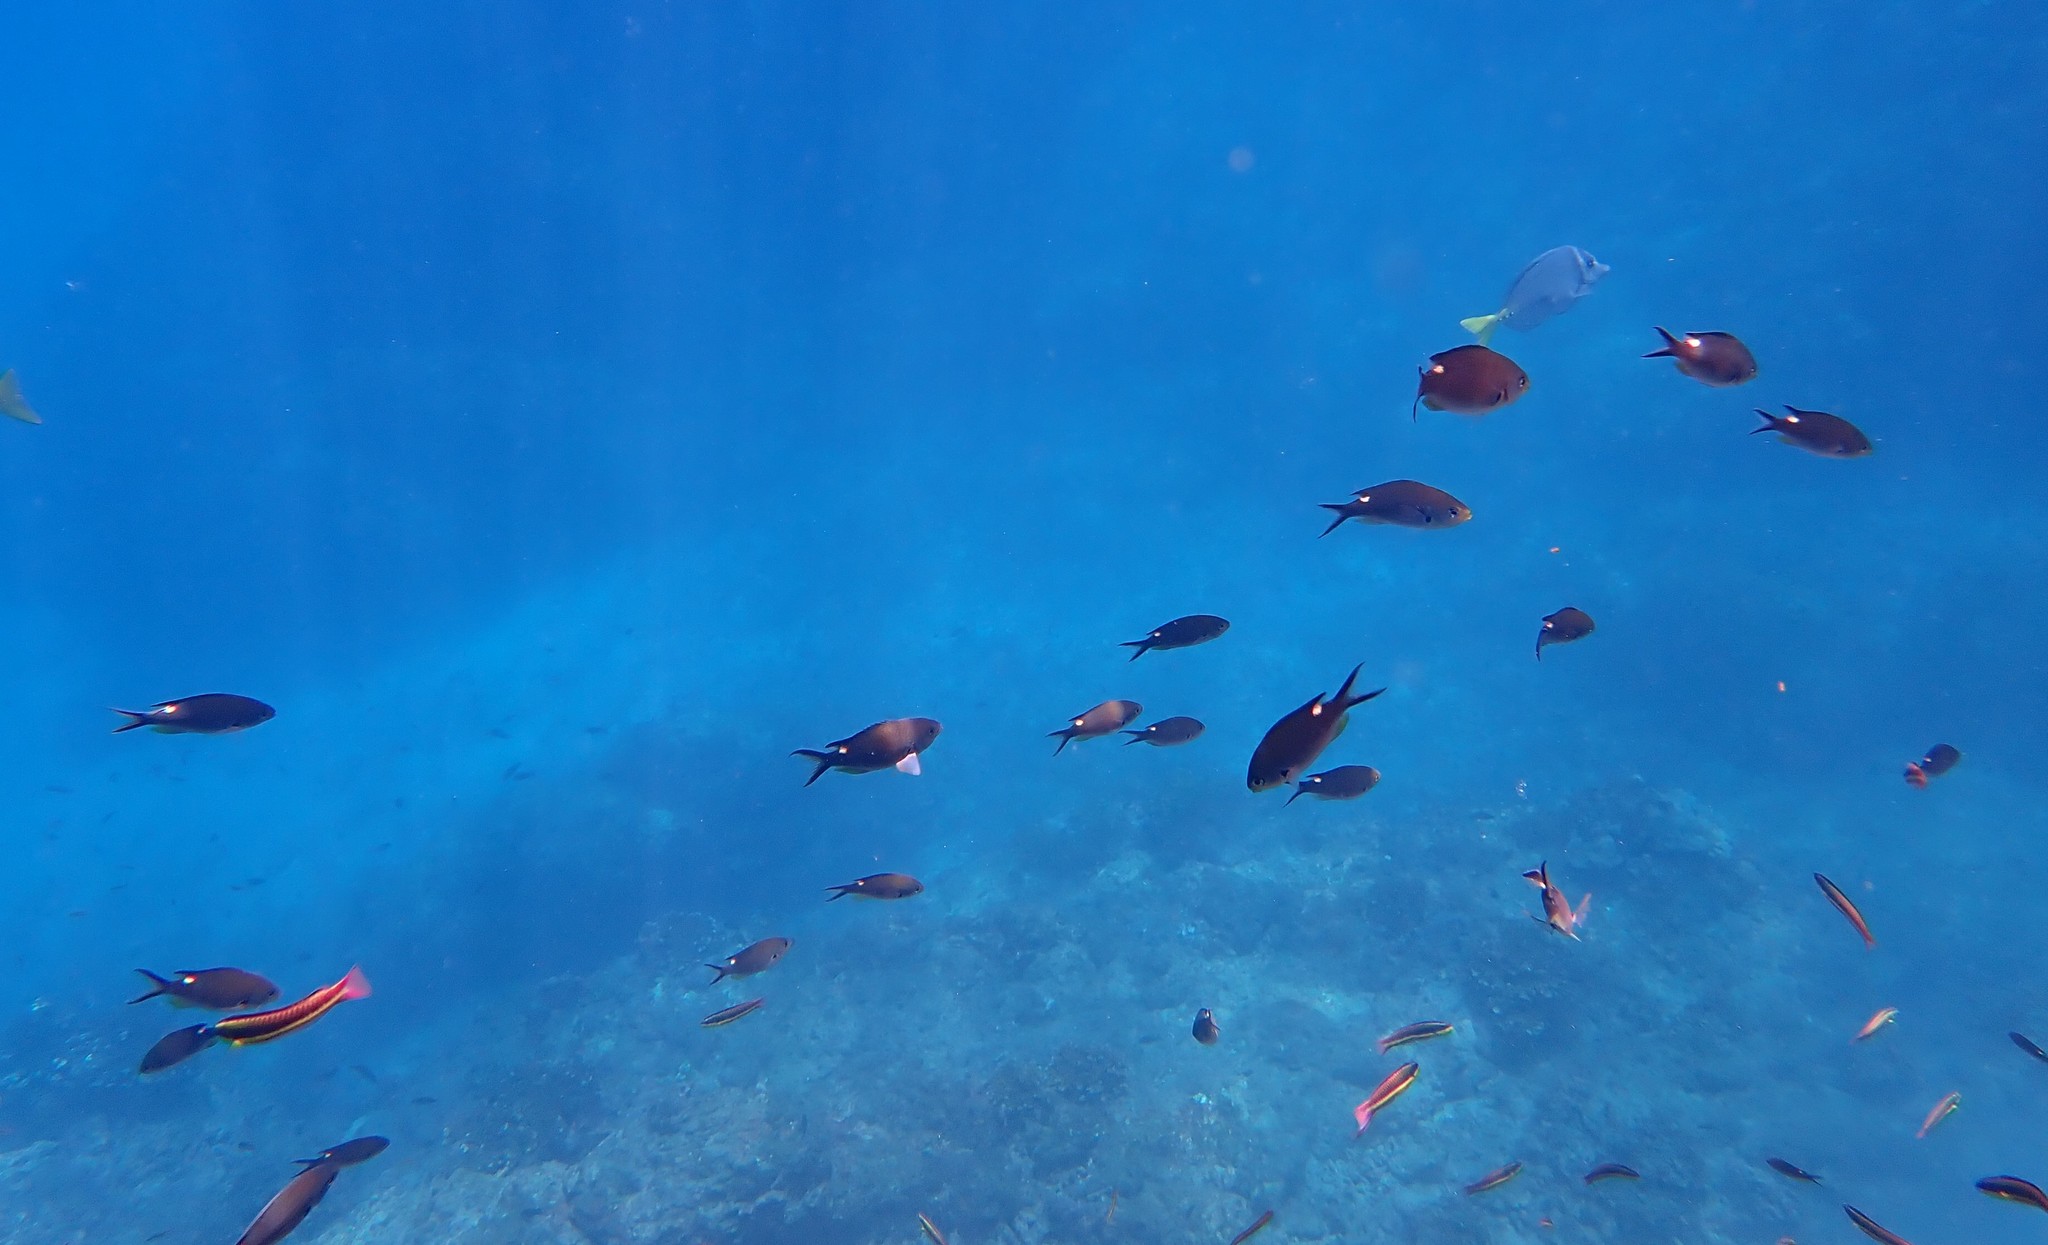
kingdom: Animalia
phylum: Chordata
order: Perciformes
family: Pomacentridae
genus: Chromis
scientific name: Chromis atrilobata
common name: Scissortail damselfish
